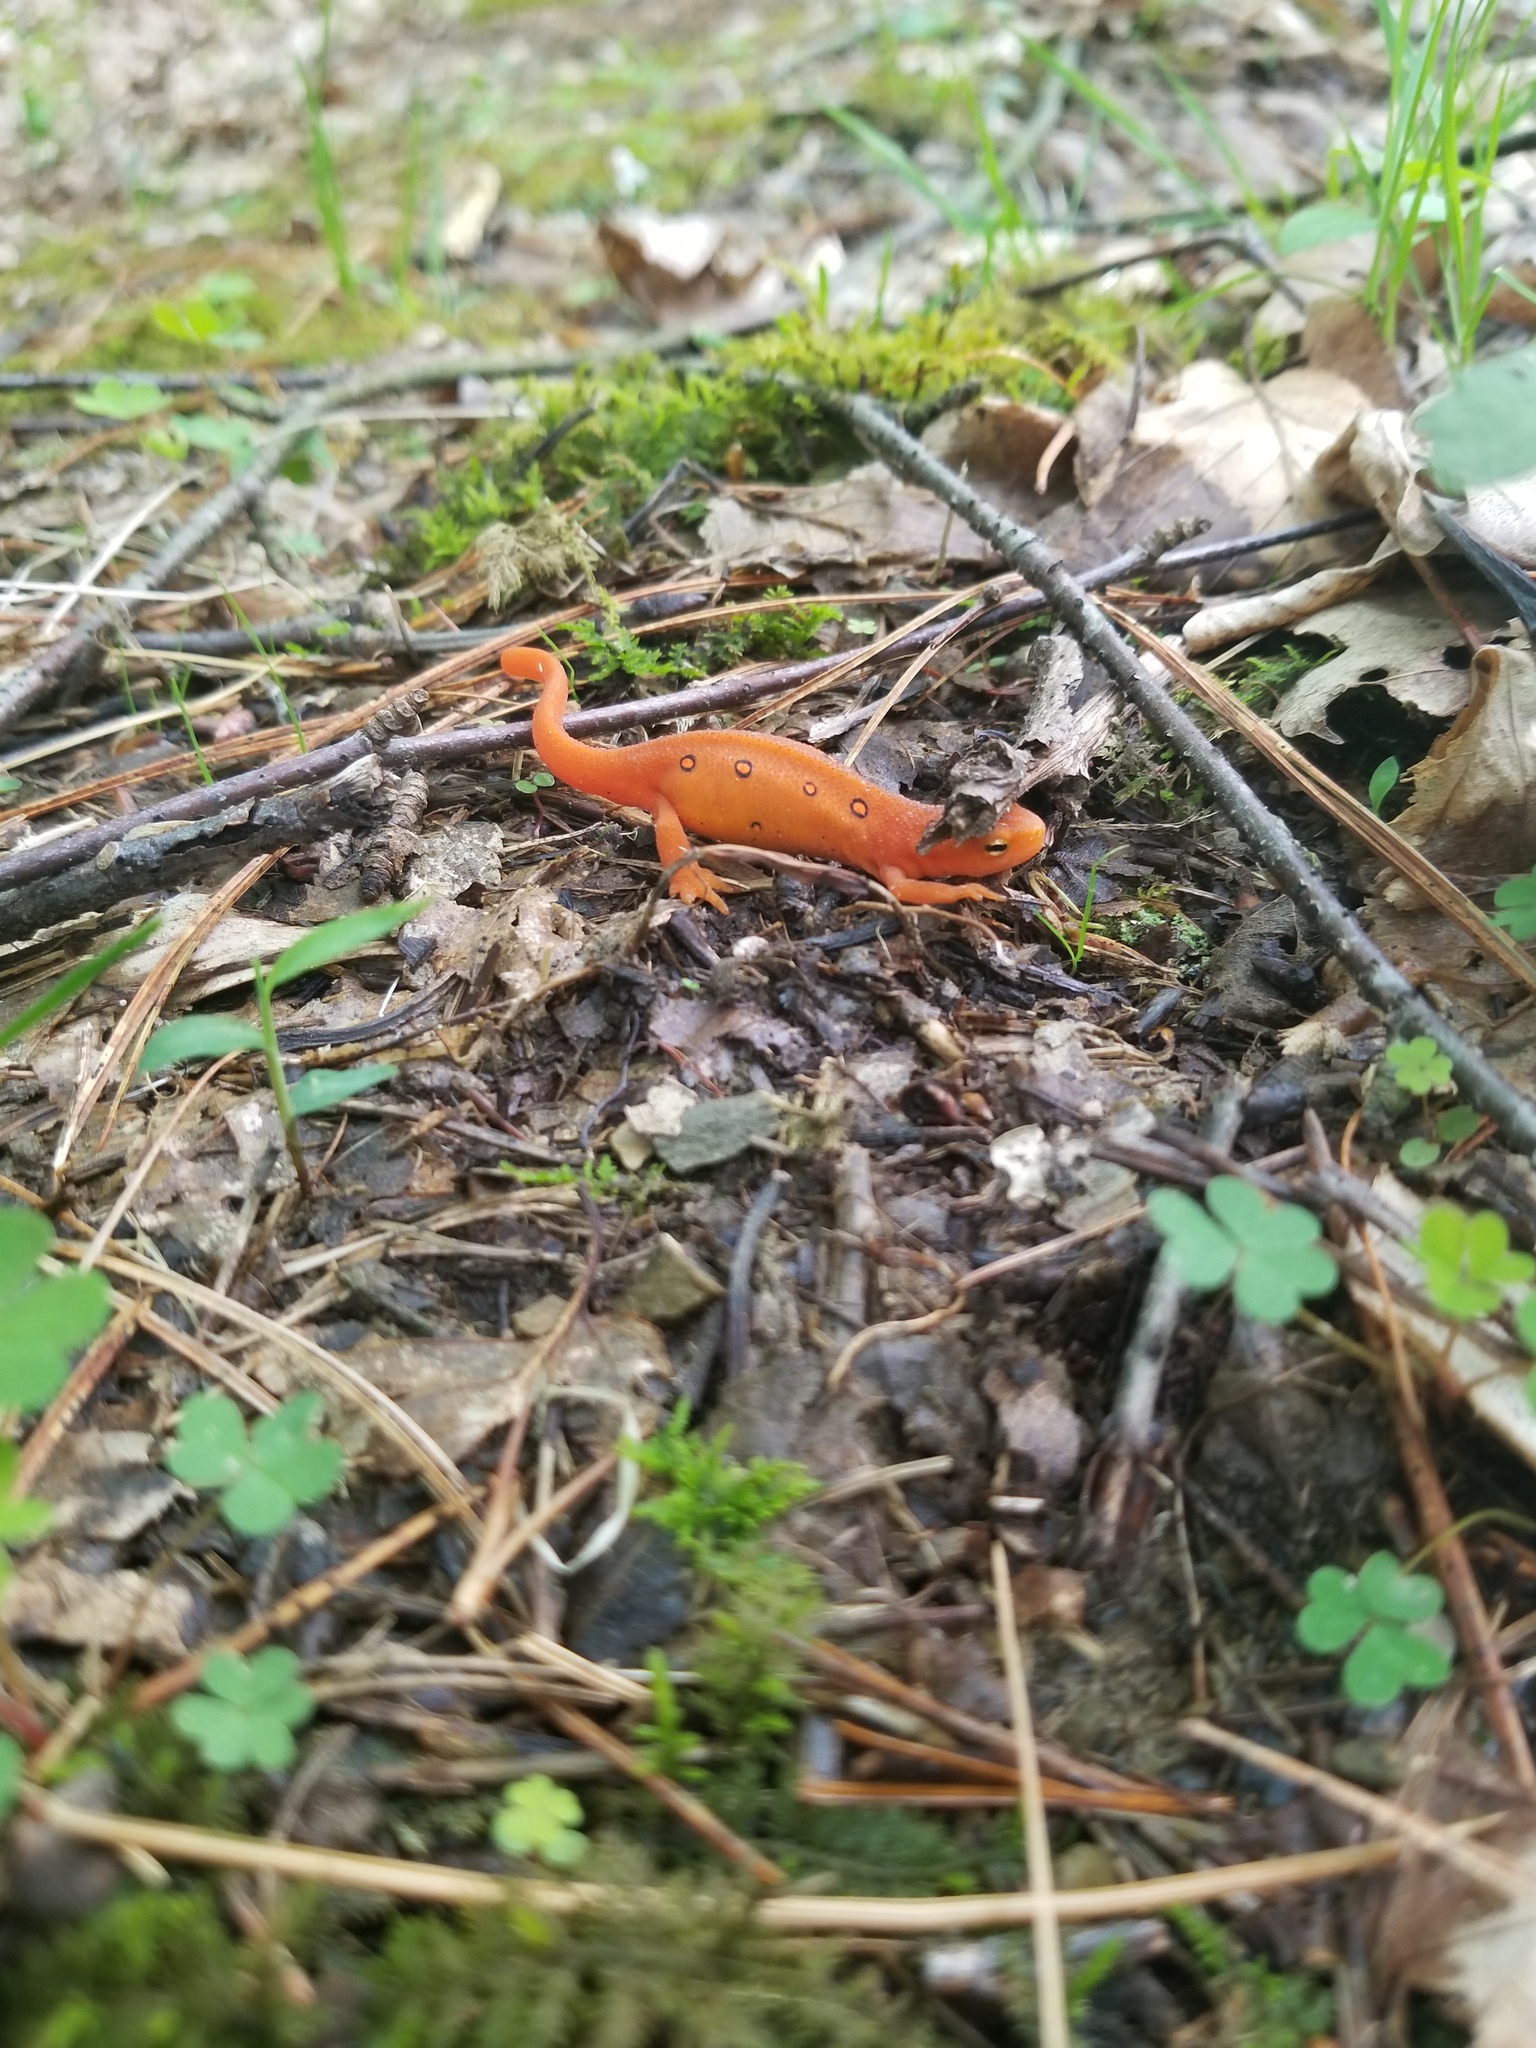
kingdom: Animalia
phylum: Chordata
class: Amphibia
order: Caudata
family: Salamandridae
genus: Notophthalmus
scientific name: Notophthalmus viridescens
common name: Eastern newt
